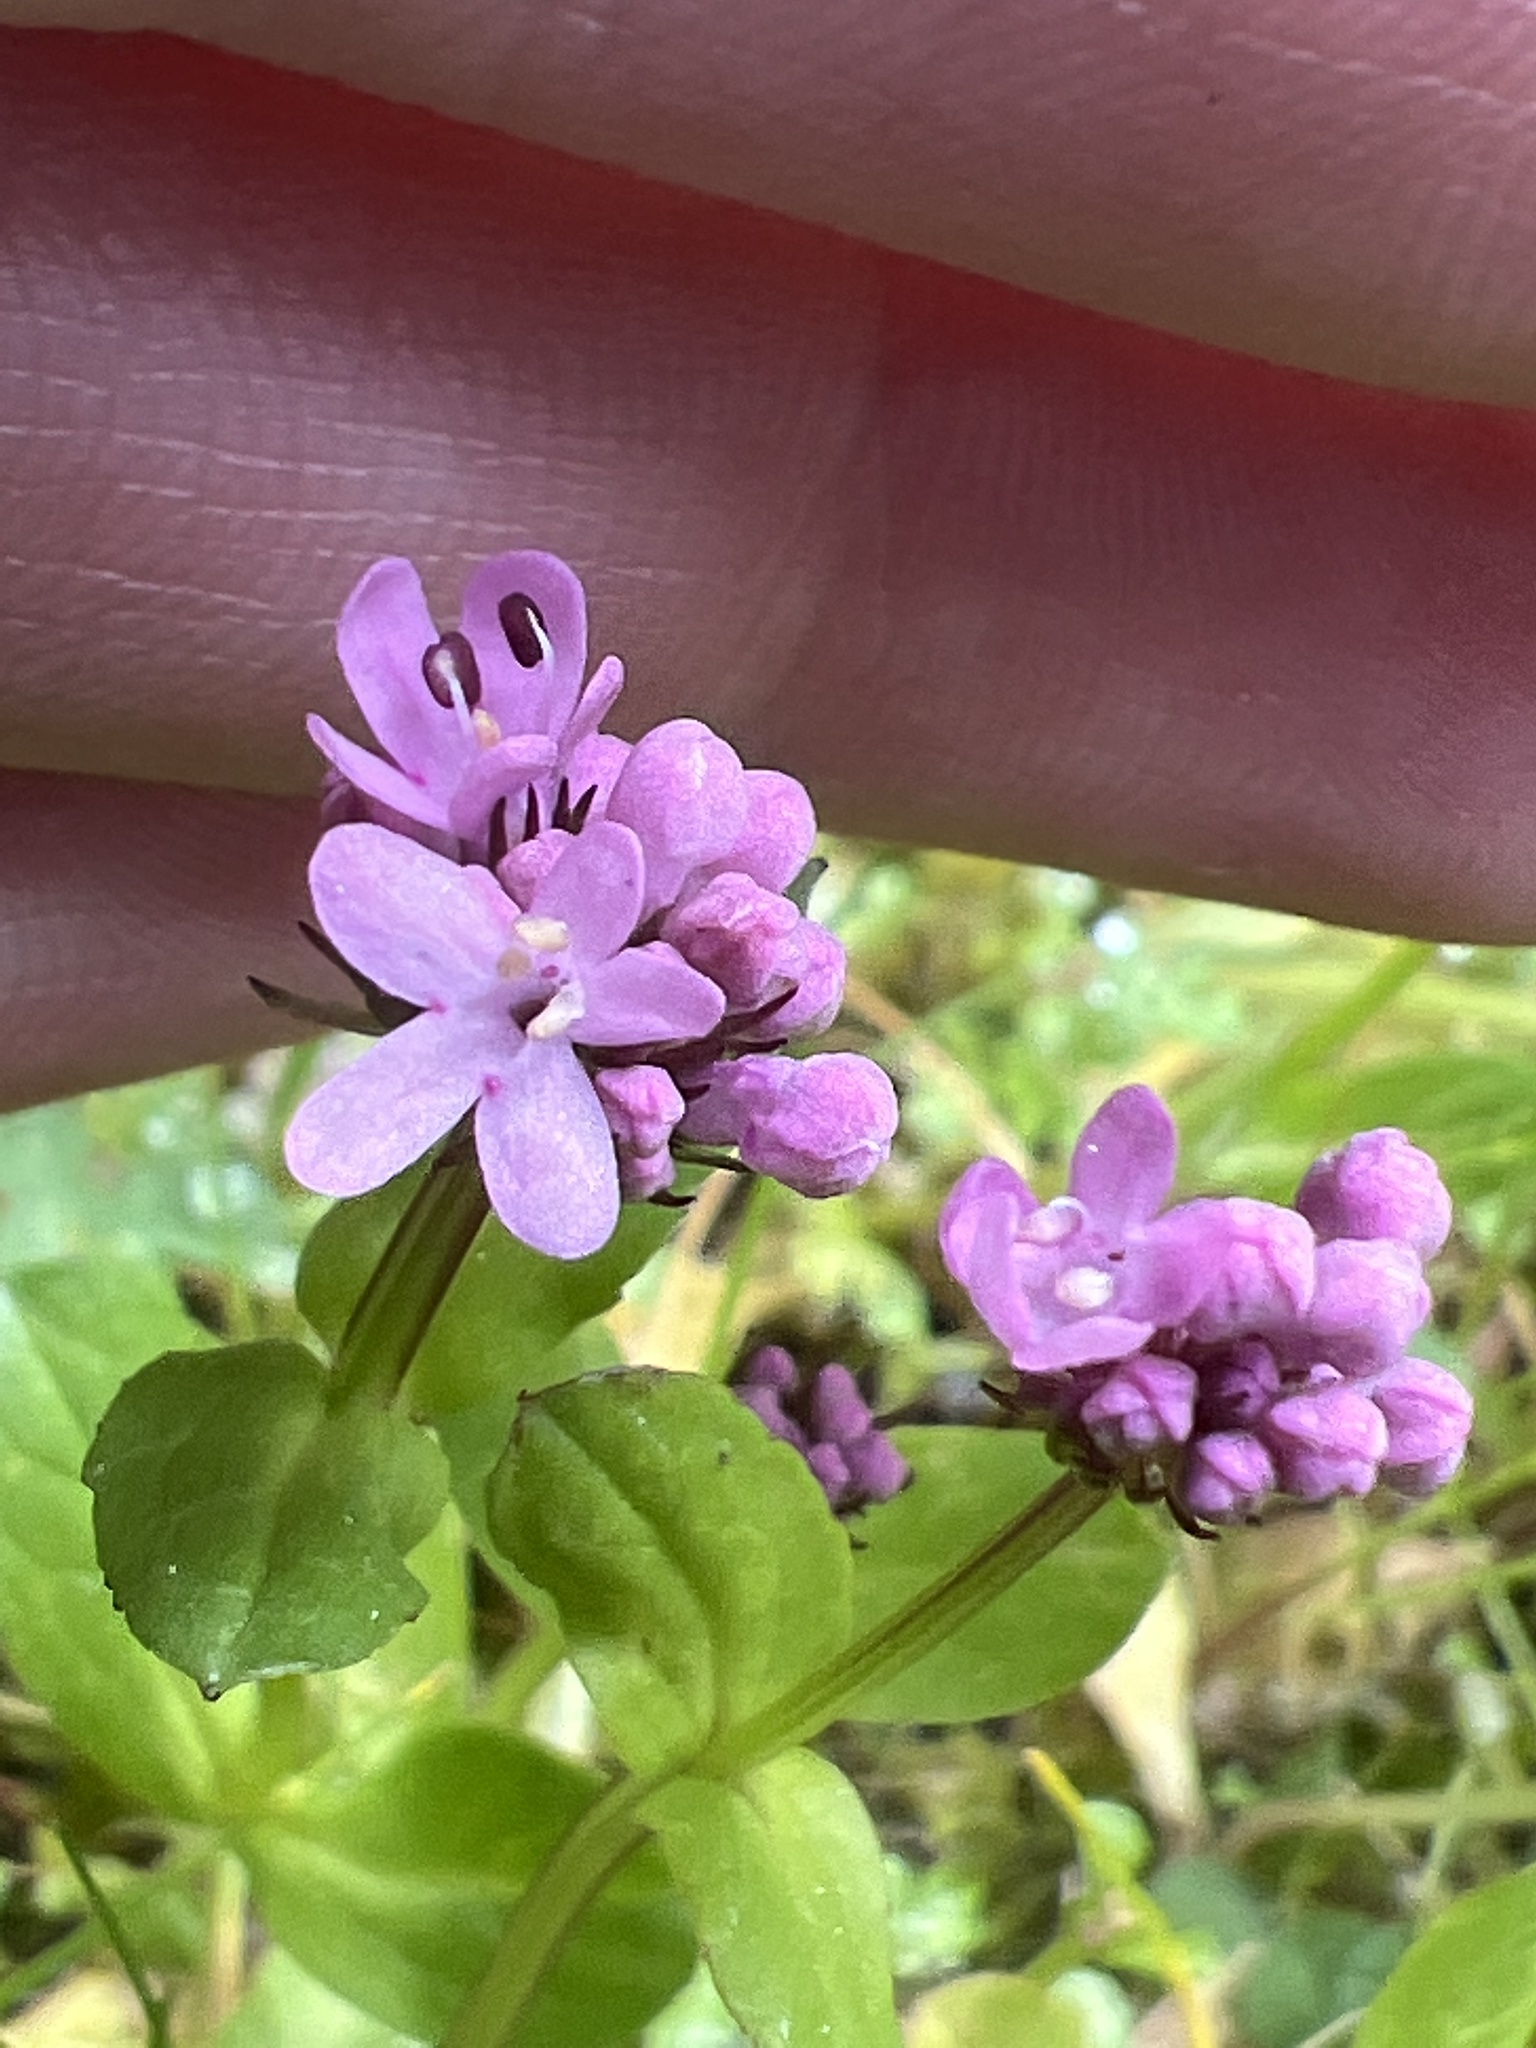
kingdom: Plantae
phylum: Tracheophyta
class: Magnoliopsida
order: Dipsacales
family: Caprifoliaceae
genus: Plectritis
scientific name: Plectritis congesta
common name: Pink plectritis
